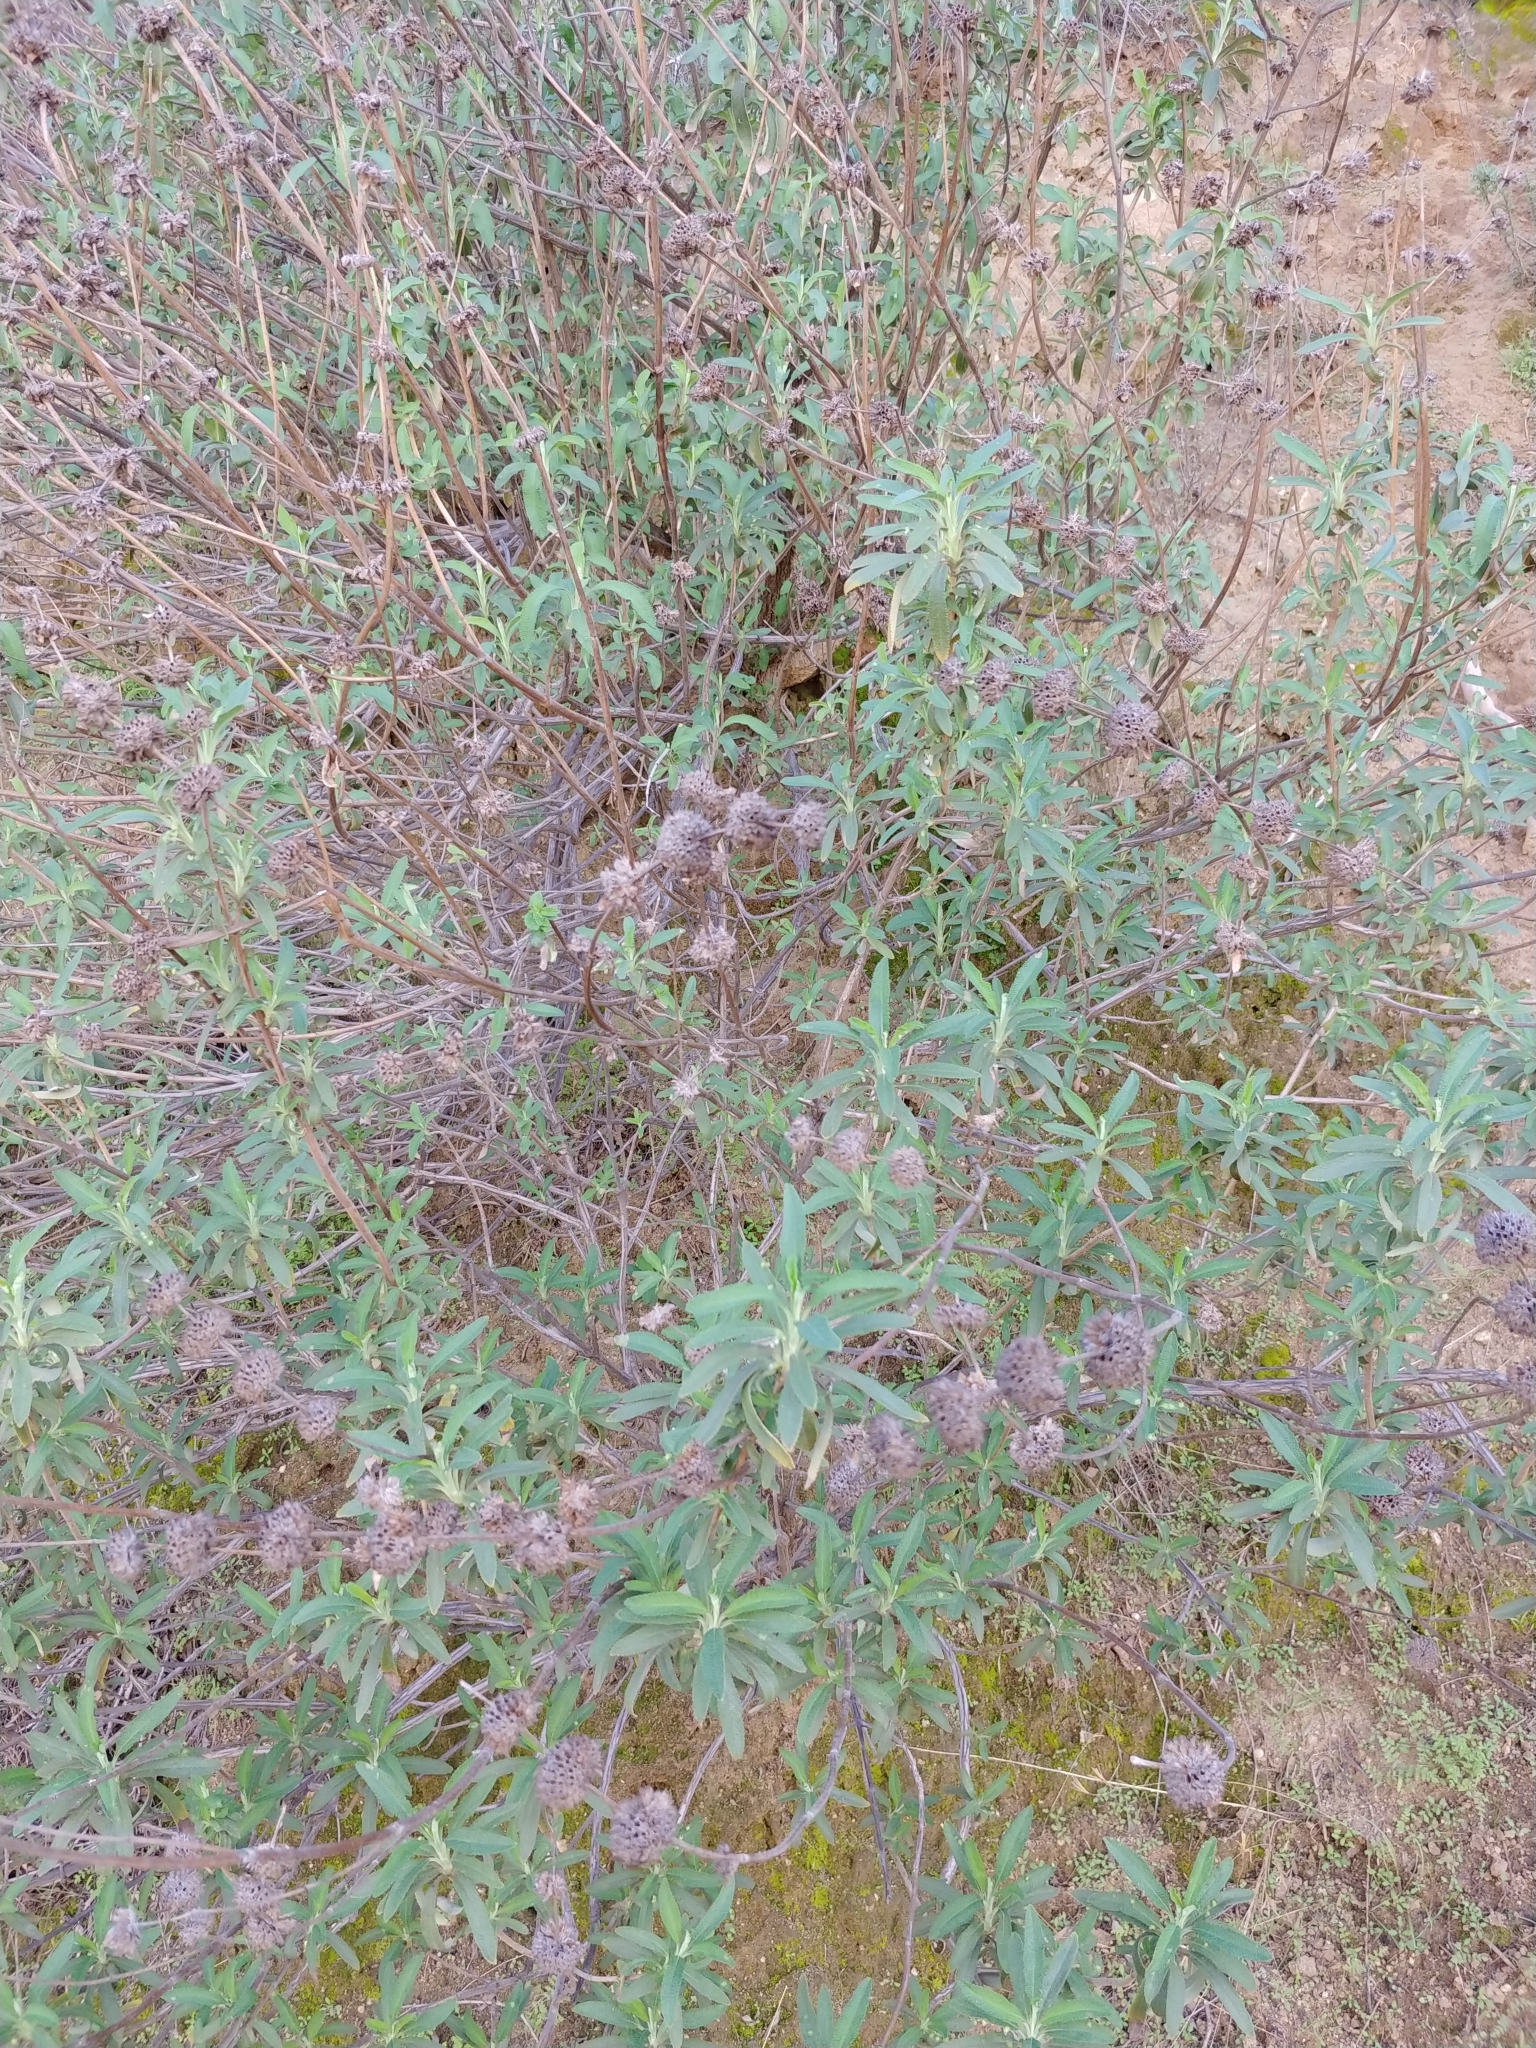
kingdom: Plantae
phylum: Tracheophyta
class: Magnoliopsida
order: Lamiales
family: Lamiaceae
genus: Salvia
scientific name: Salvia mellifera
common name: Black sage
